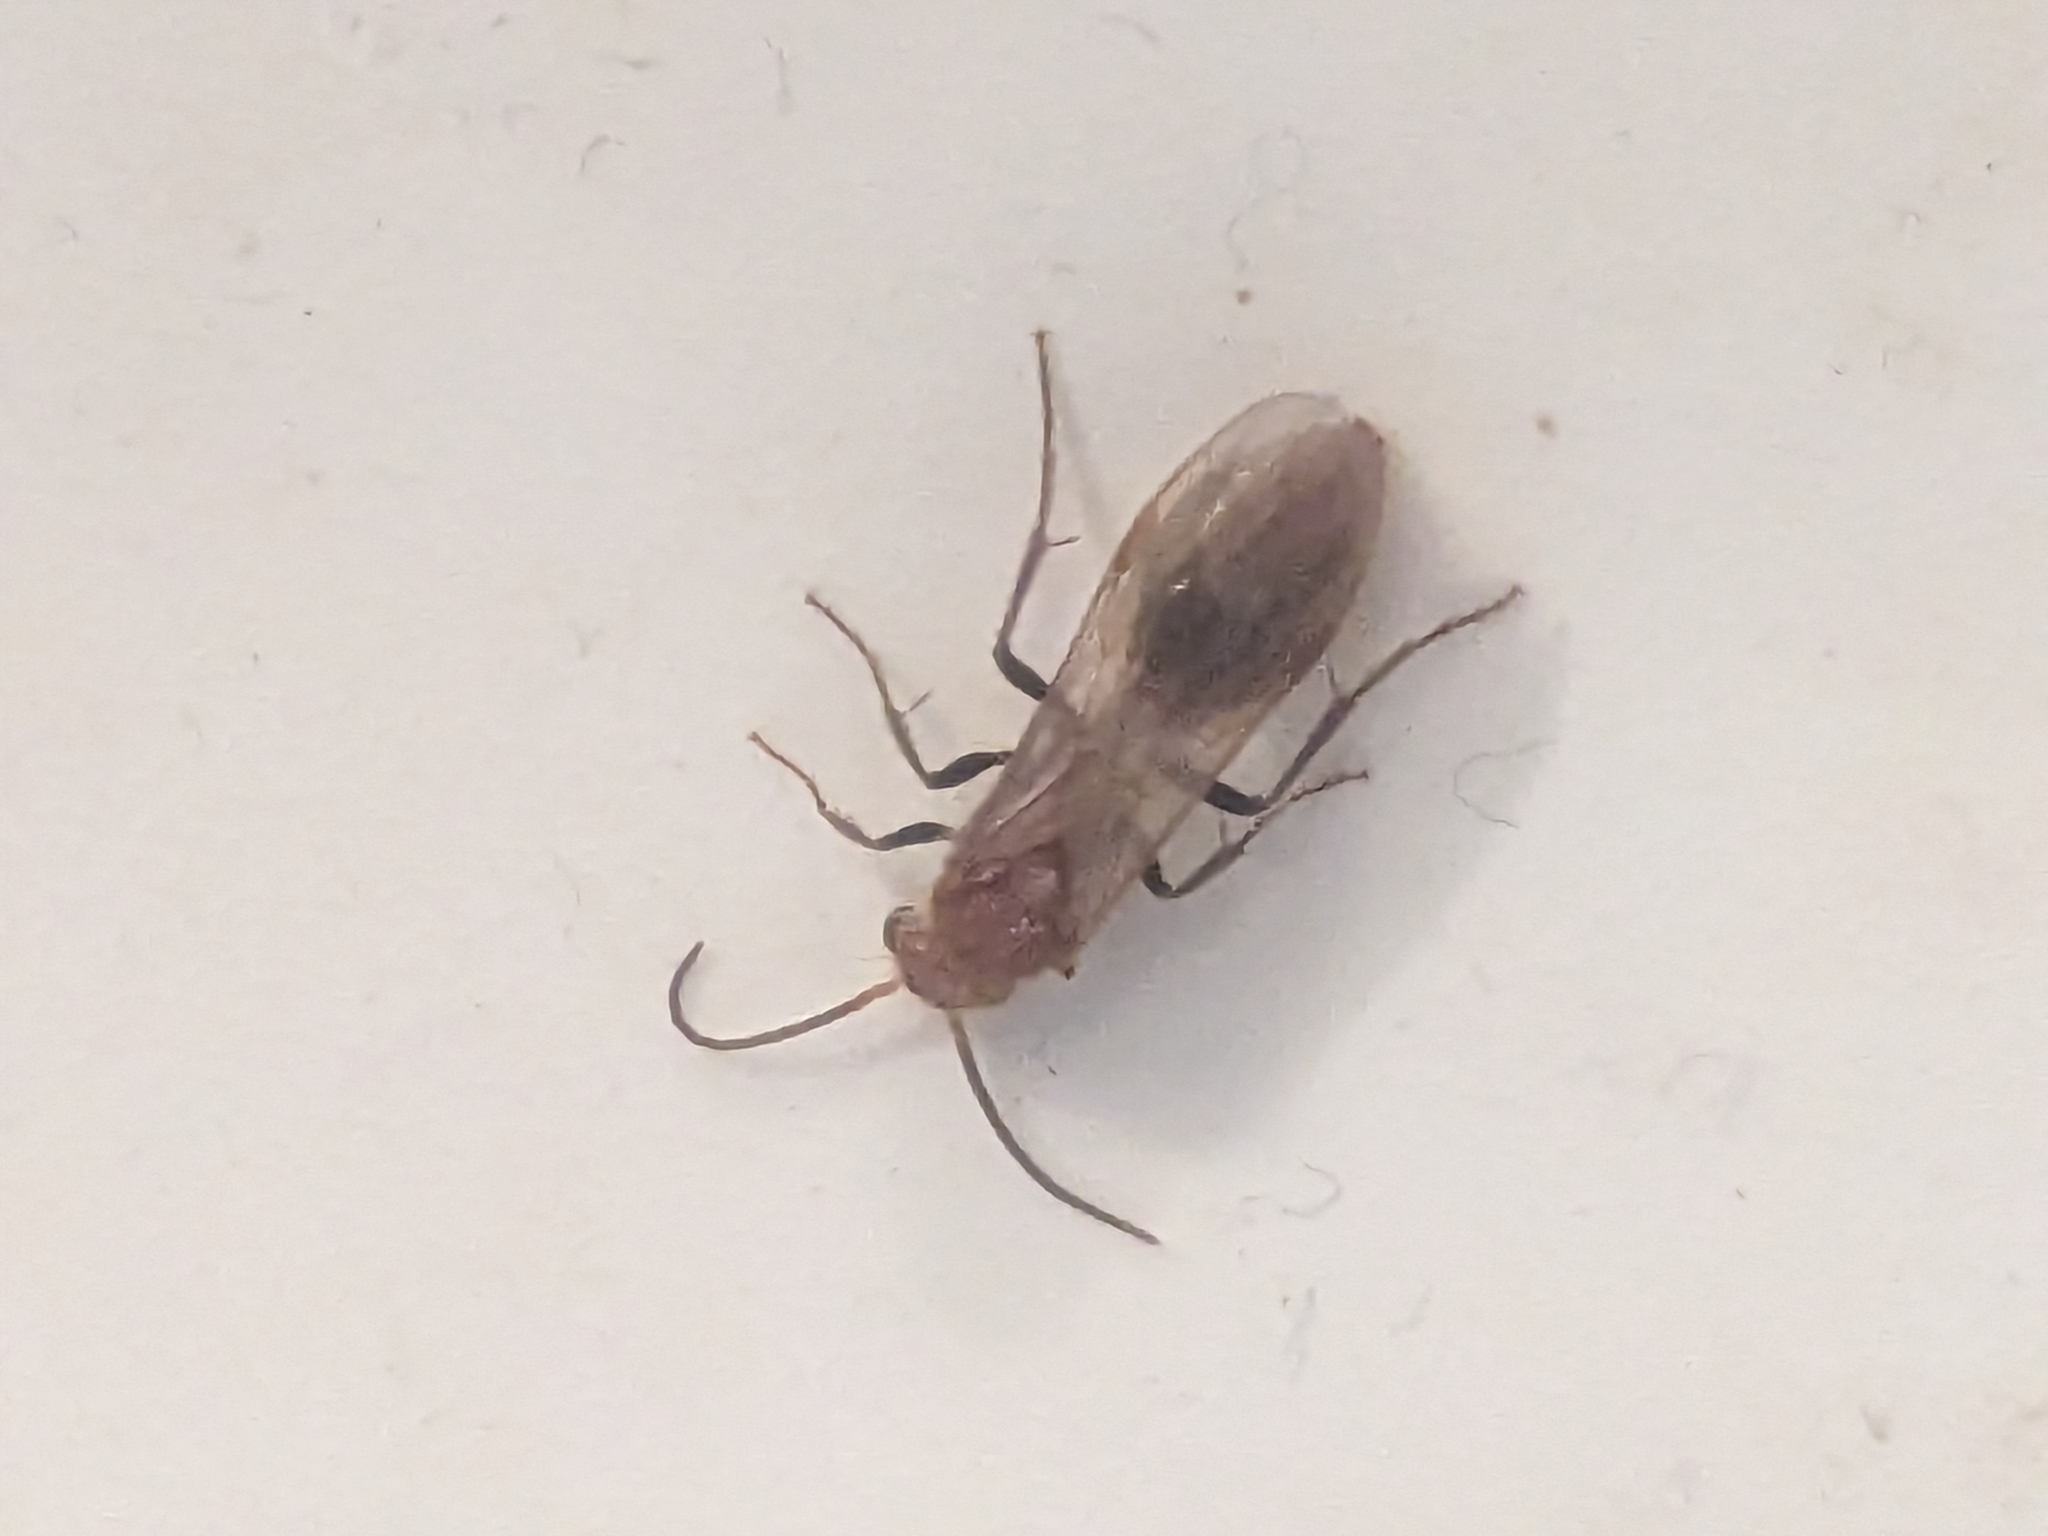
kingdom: Animalia
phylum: Arthropoda
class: Insecta
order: Hymenoptera
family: Mutillidae
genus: Sphaeropthalma
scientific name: Sphaeropthalma unicolor
